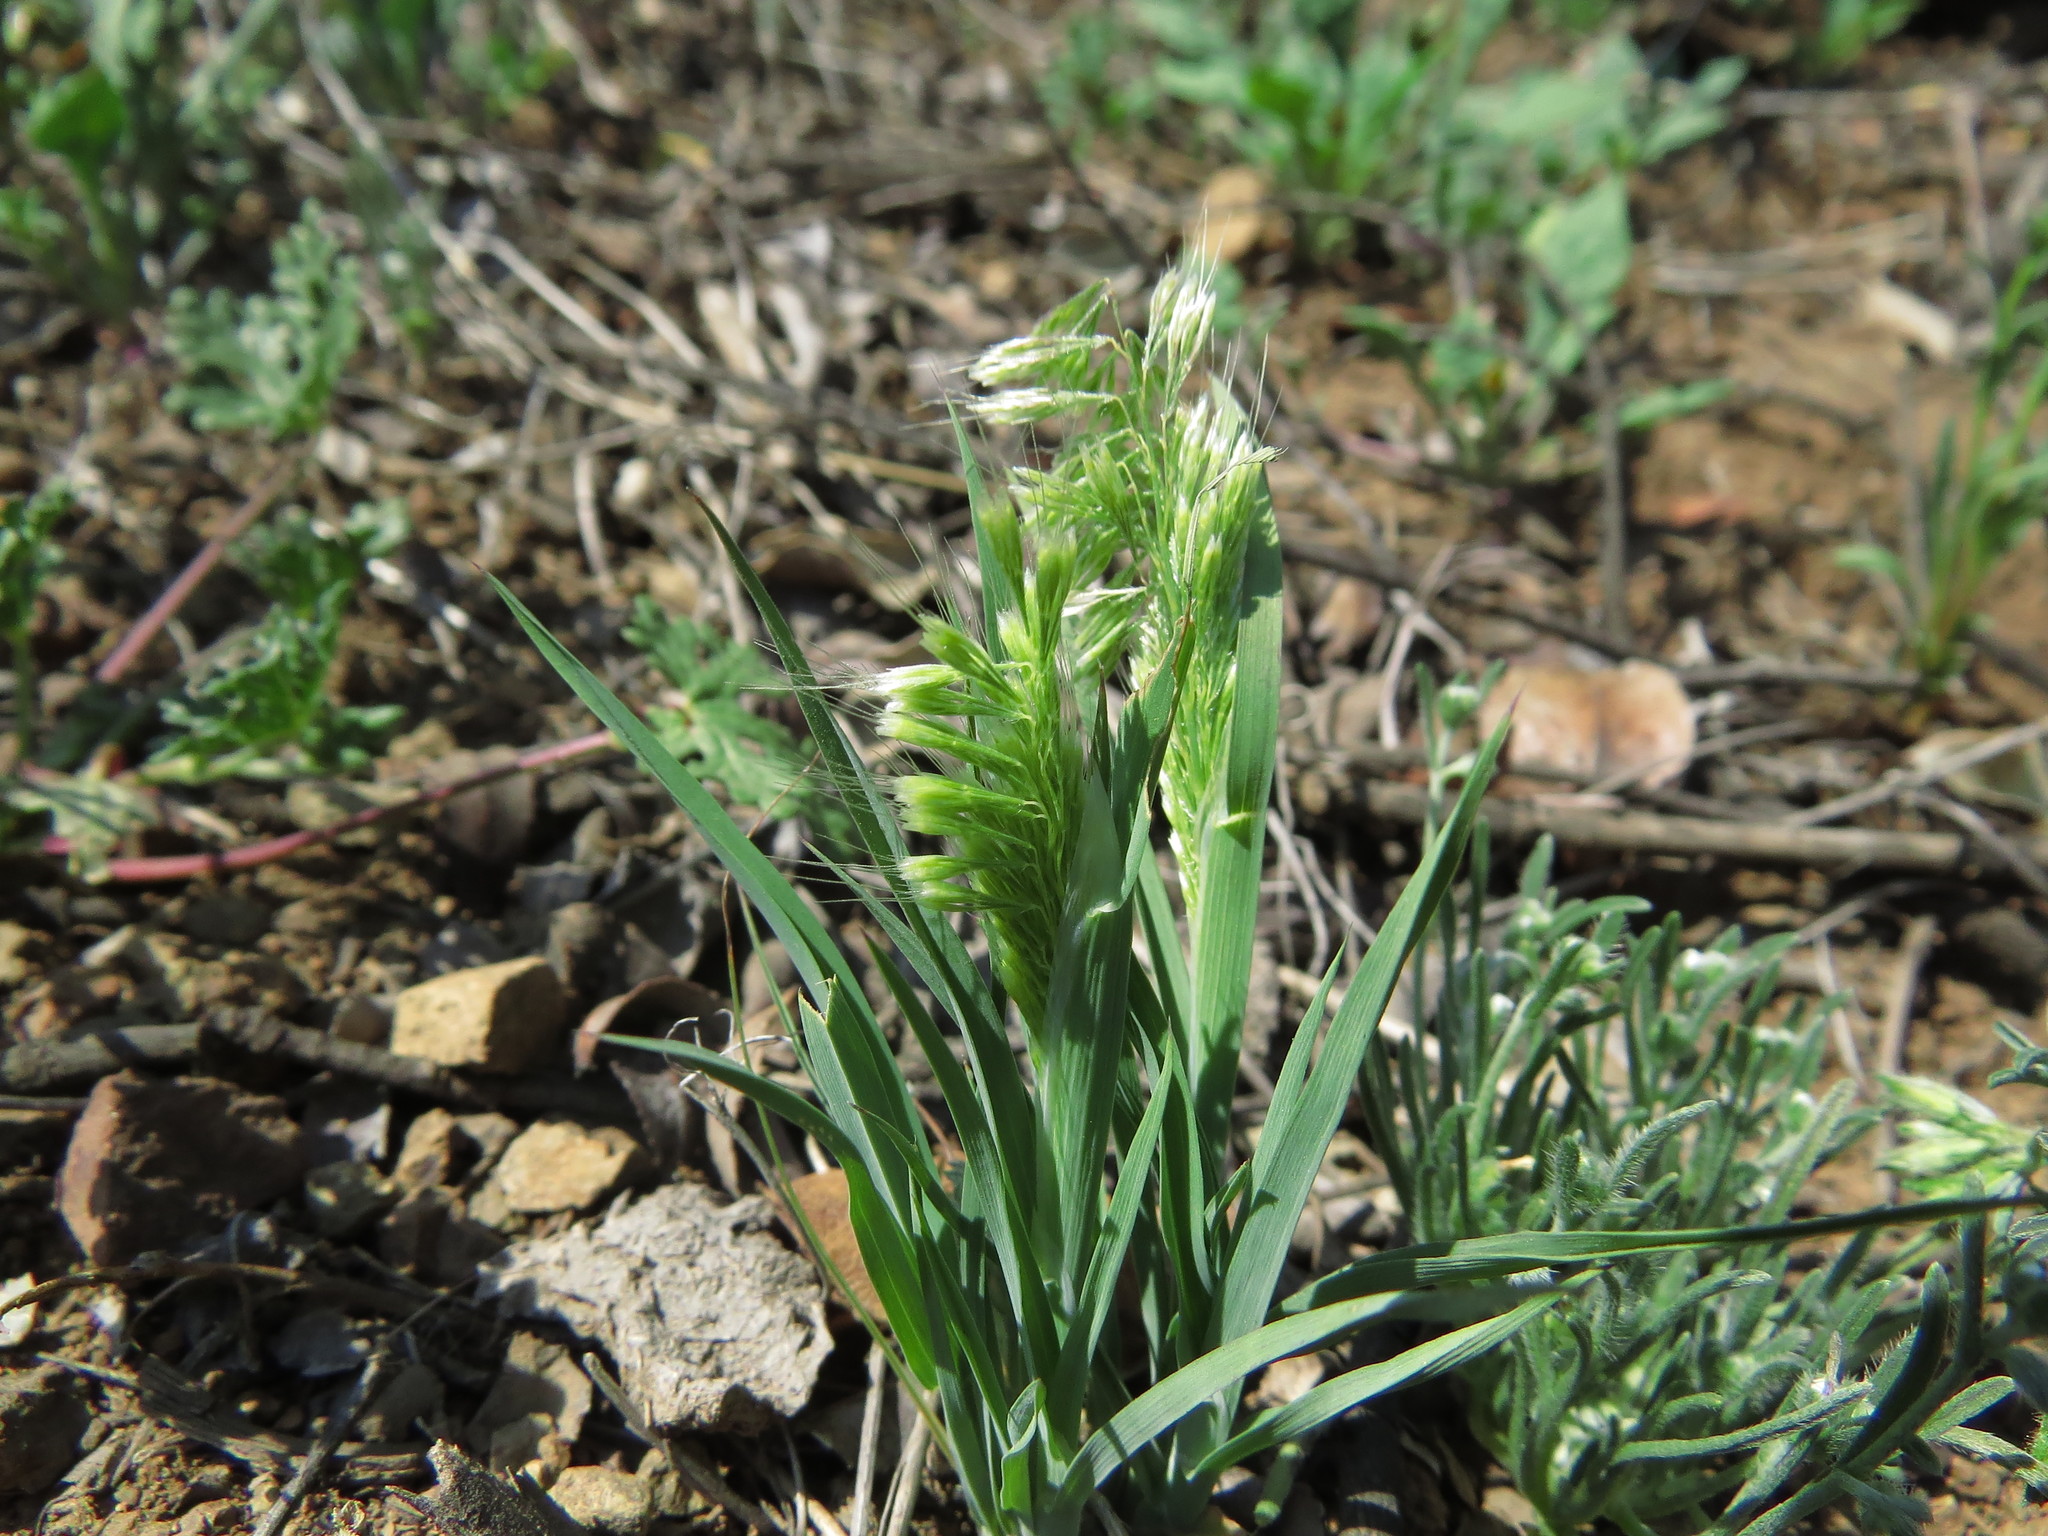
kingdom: Plantae
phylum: Tracheophyta
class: Liliopsida
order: Poales
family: Poaceae
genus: Lamarckia
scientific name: Lamarckia aurea
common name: Golden dog's-tail
